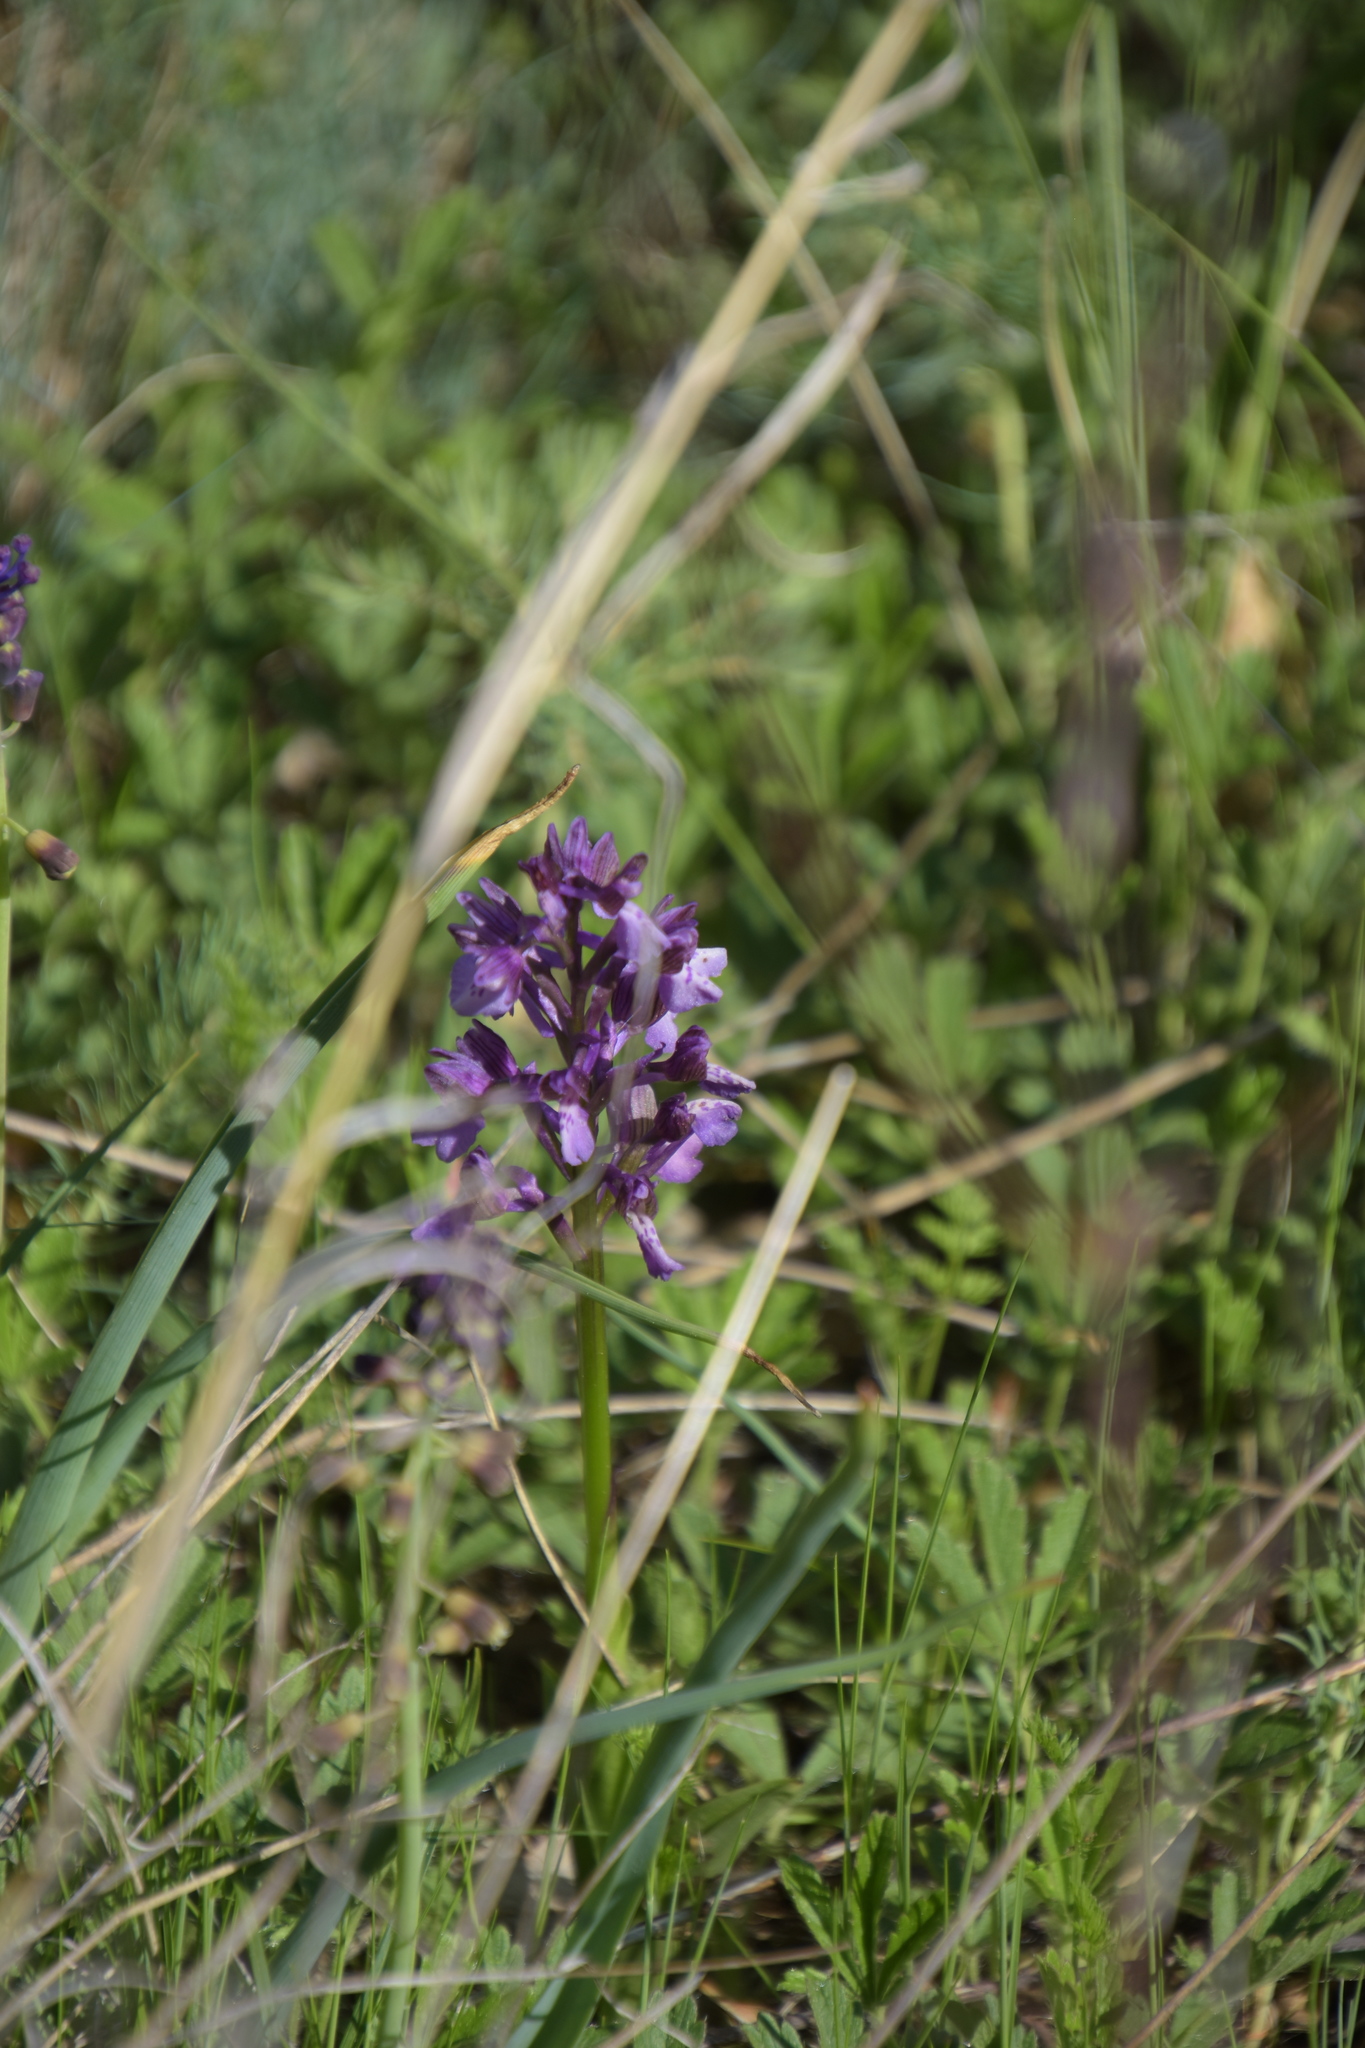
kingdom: Plantae
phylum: Tracheophyta
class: Liliopsida
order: Asparagales
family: Orchidaceae
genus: Anacamptis
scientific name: Anacamptis morio
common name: Green-winged orchid
